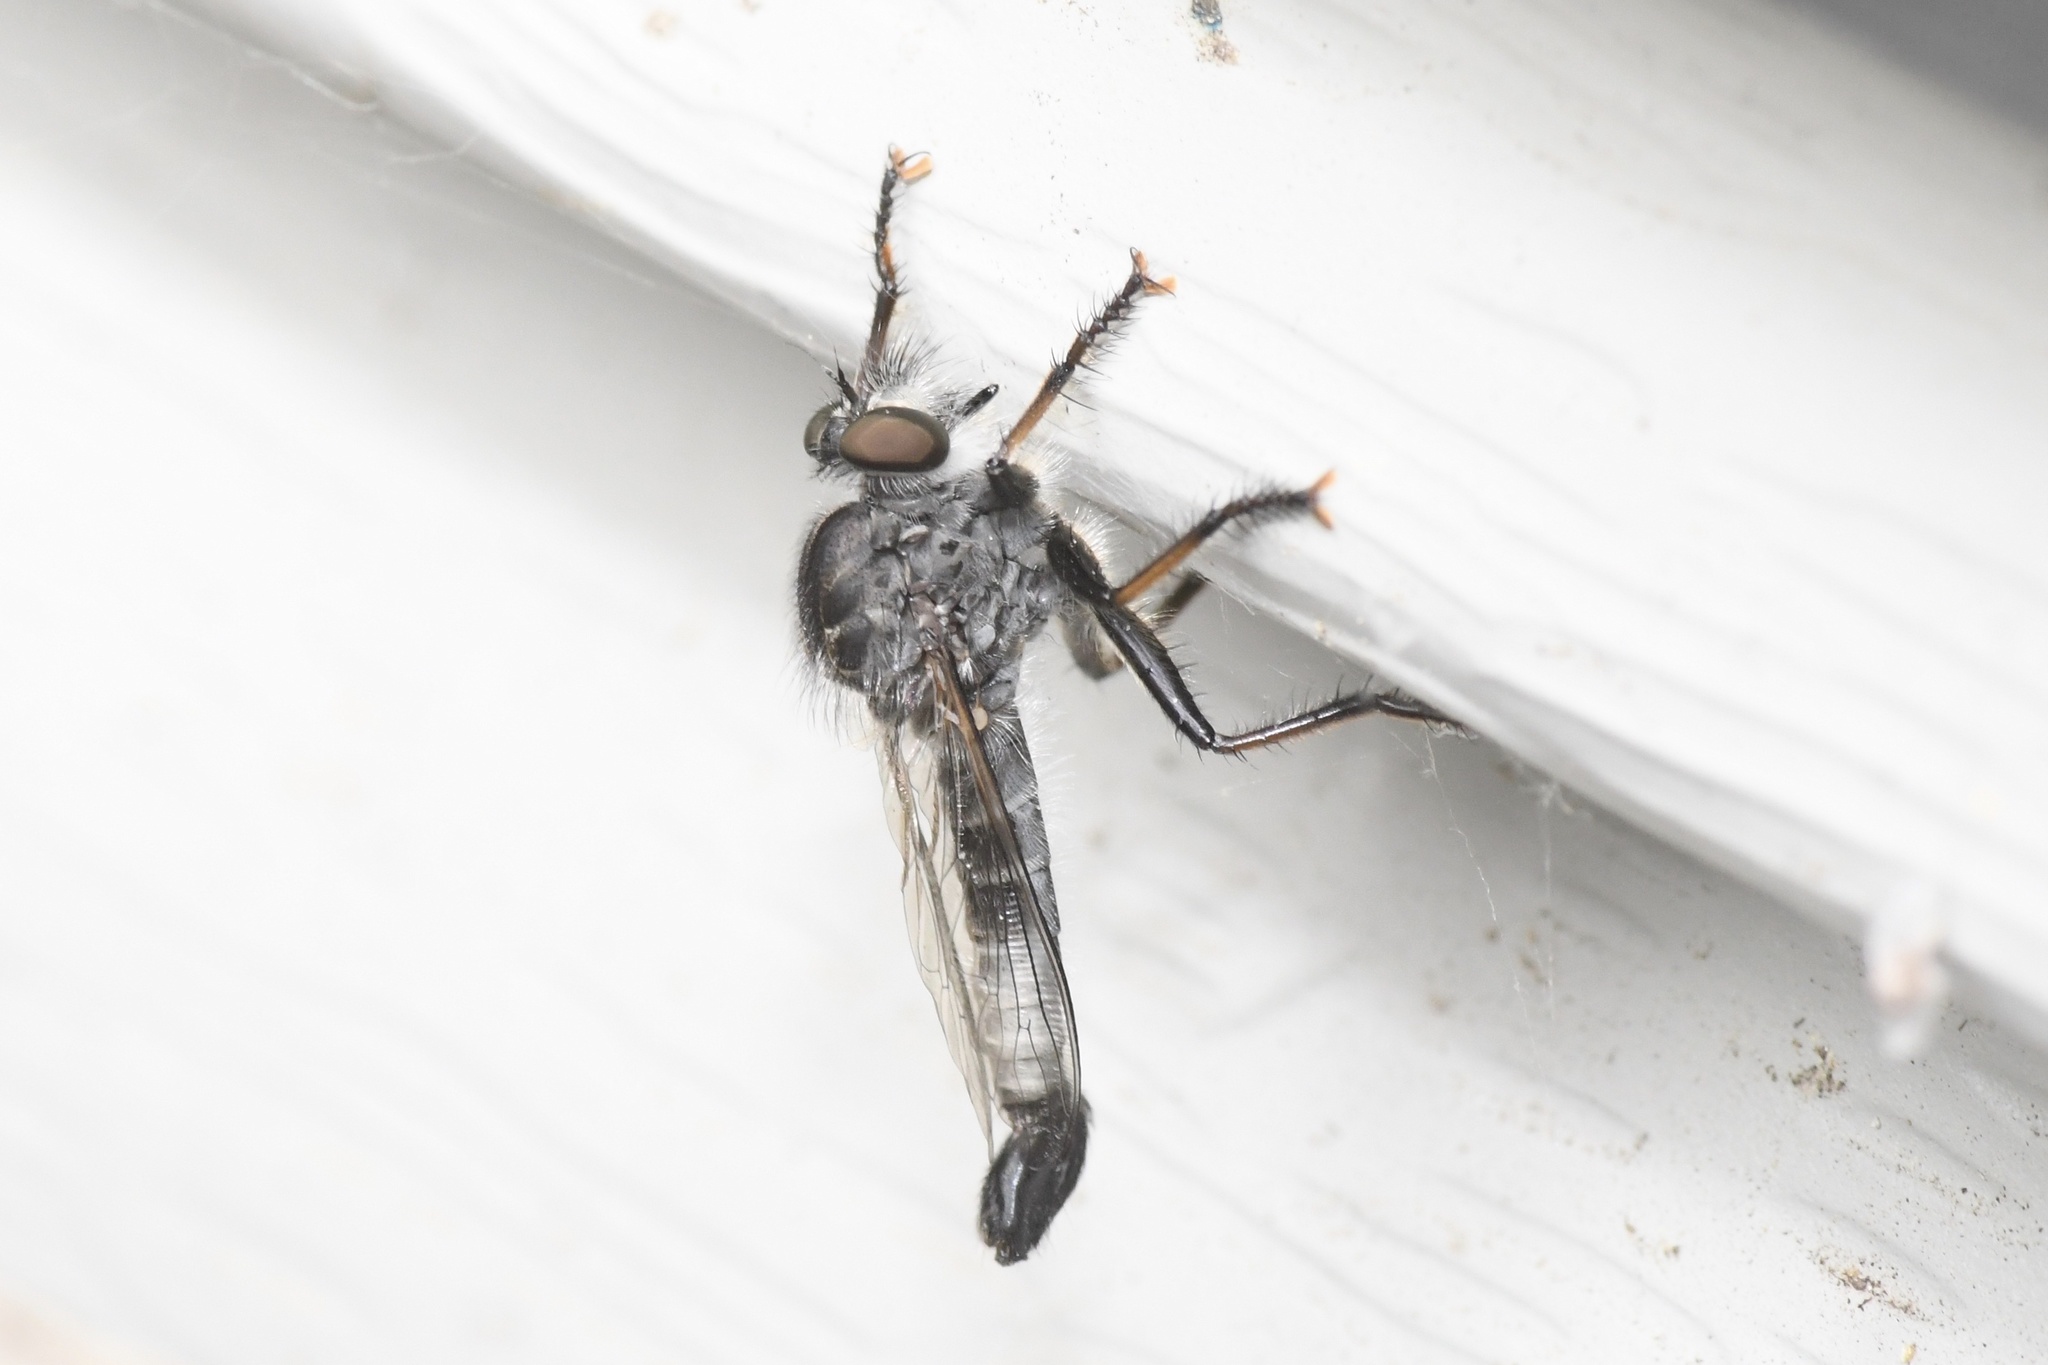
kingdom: Animalia
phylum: Arthropoda
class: Insecta
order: Diptera
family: Asilidae
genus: Efferia
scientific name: Efferia aestuans
